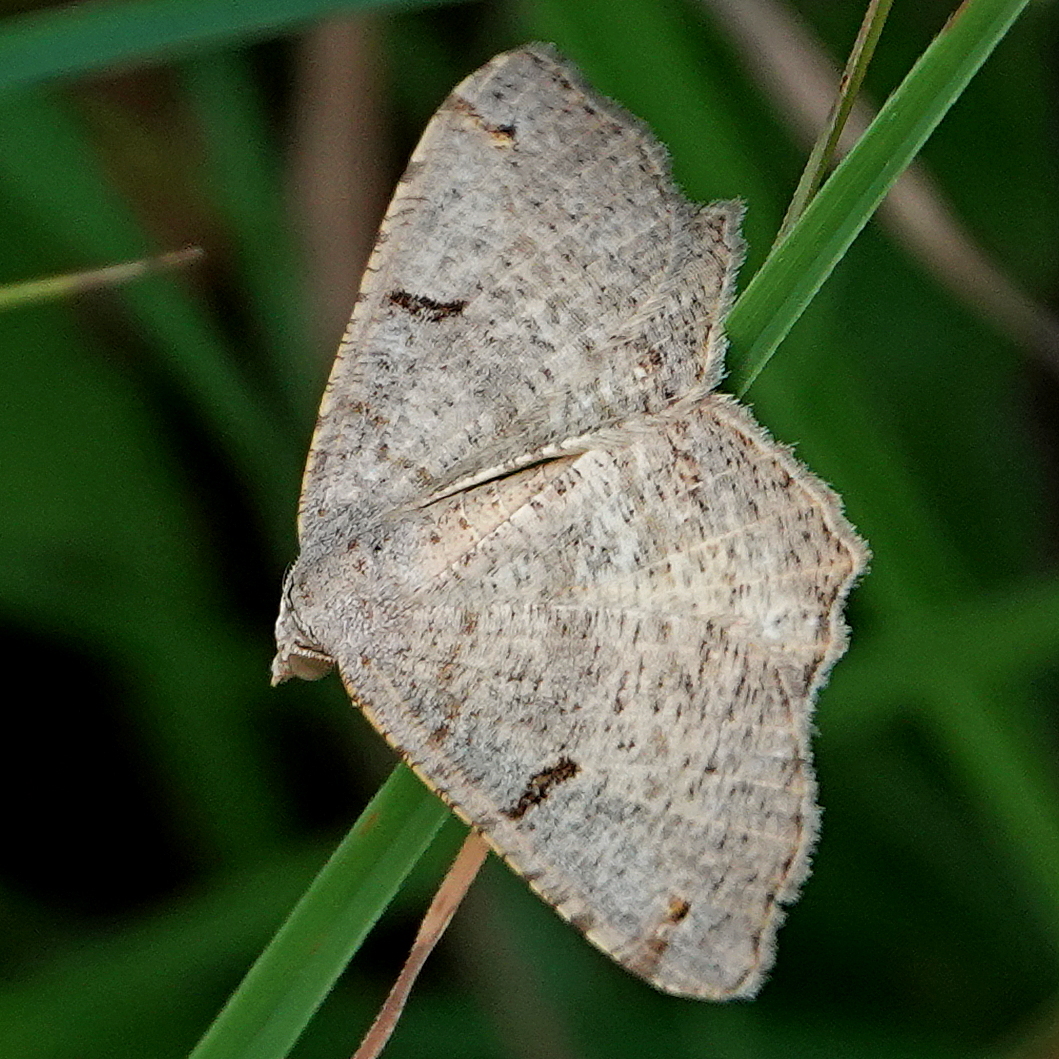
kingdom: Animalia
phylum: Arthropoda
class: Insecta
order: Lepidoptera
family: Geometridae
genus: Dissomorphia
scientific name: Dissomorphia australiaria
